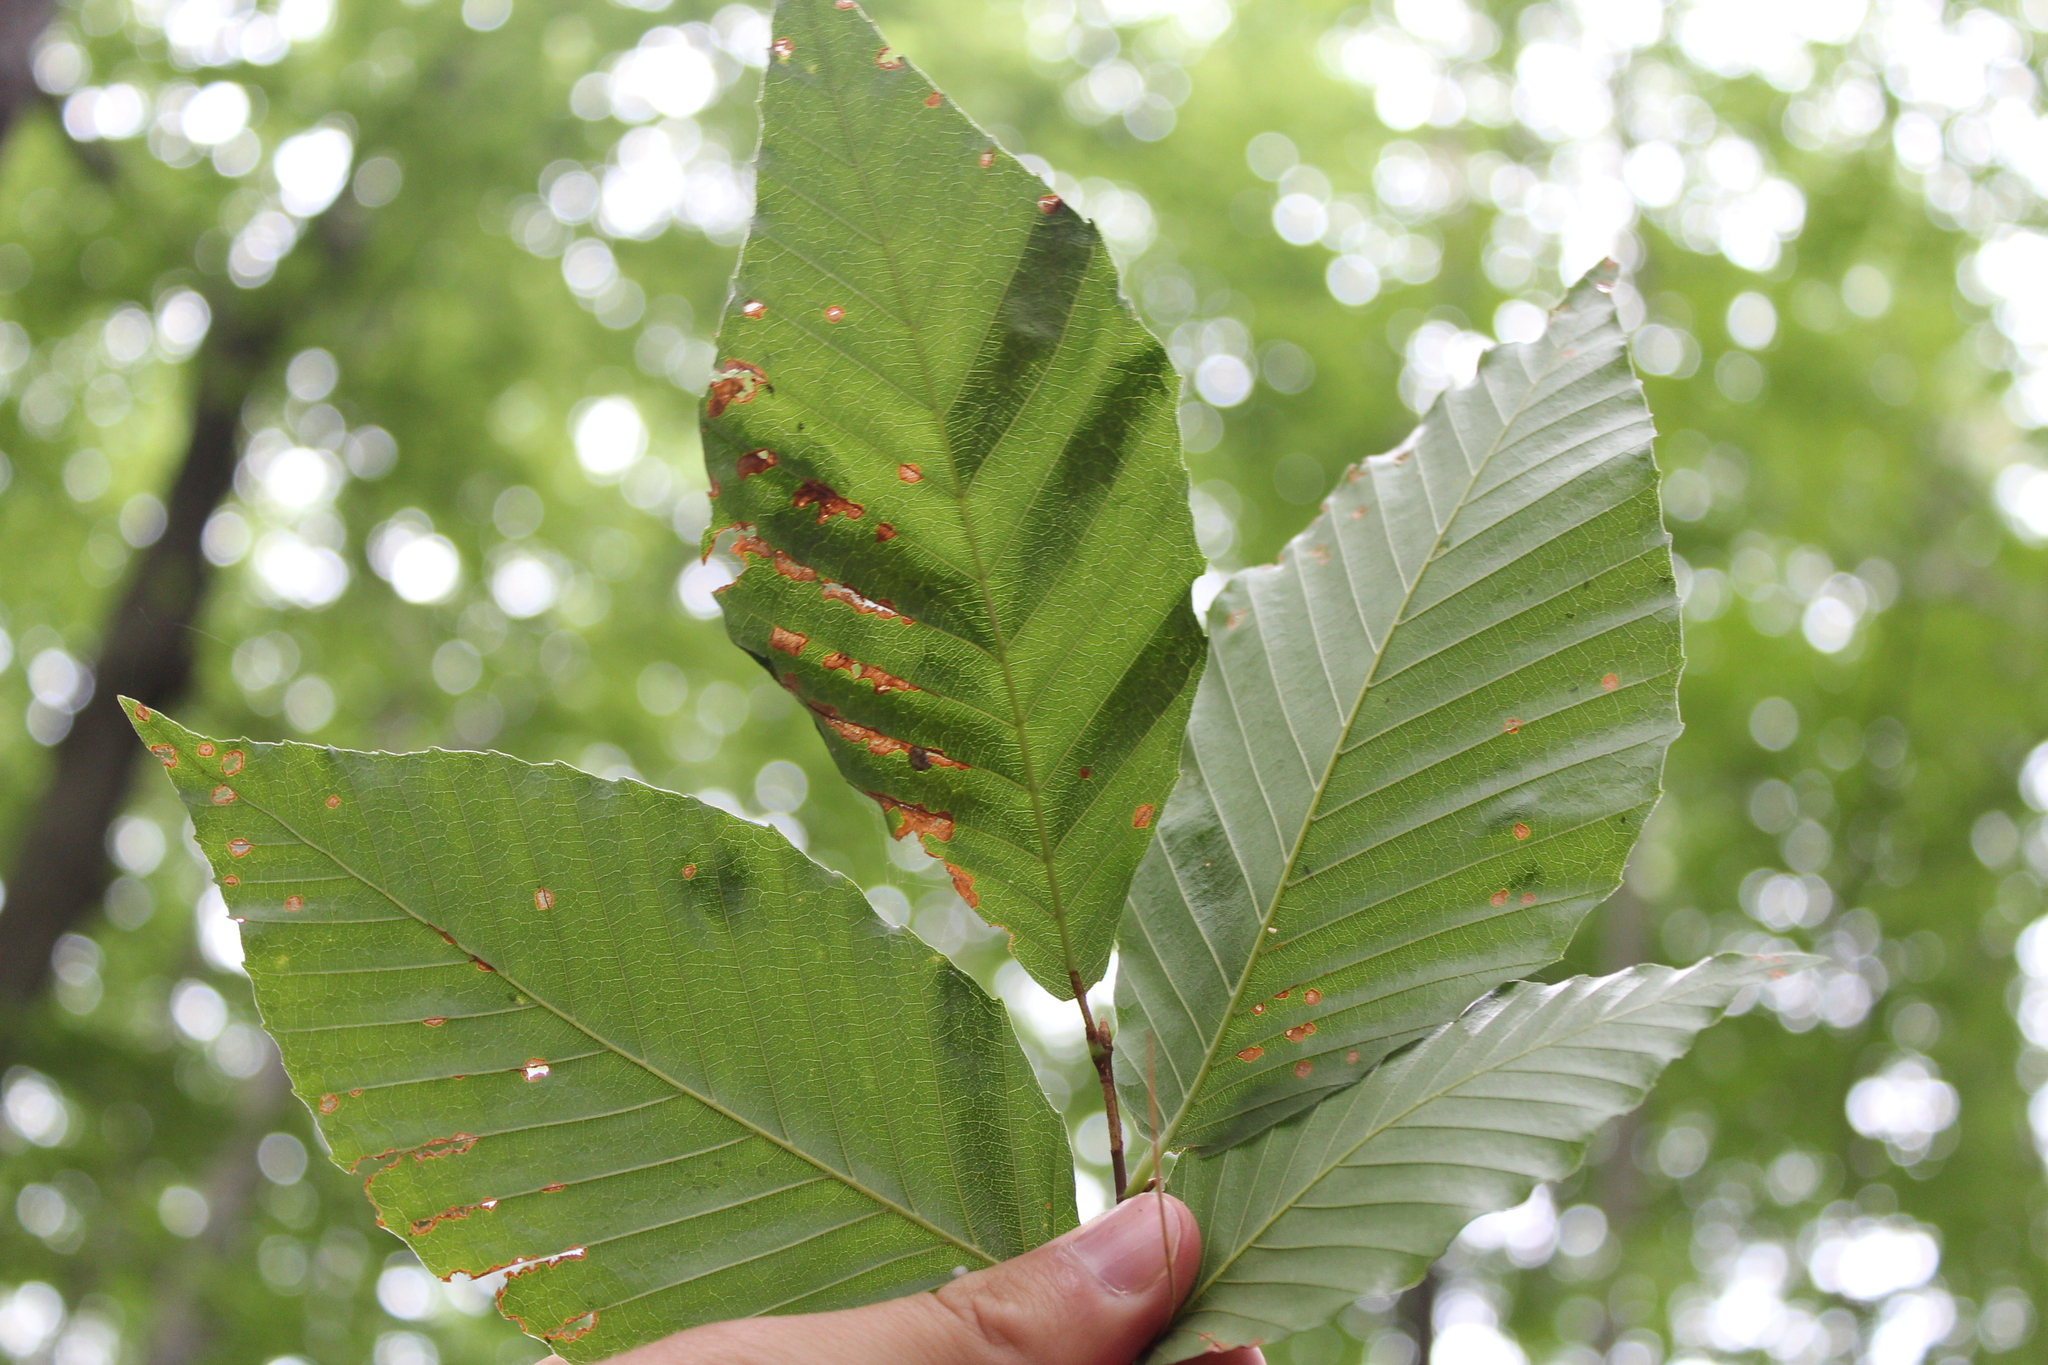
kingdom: Animalia
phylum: Nematoda
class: Chromadorea
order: Rhabditida
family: Anguinidae
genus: Litylenchus
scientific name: Litylenchus crenatae
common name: Beech leaf disease
